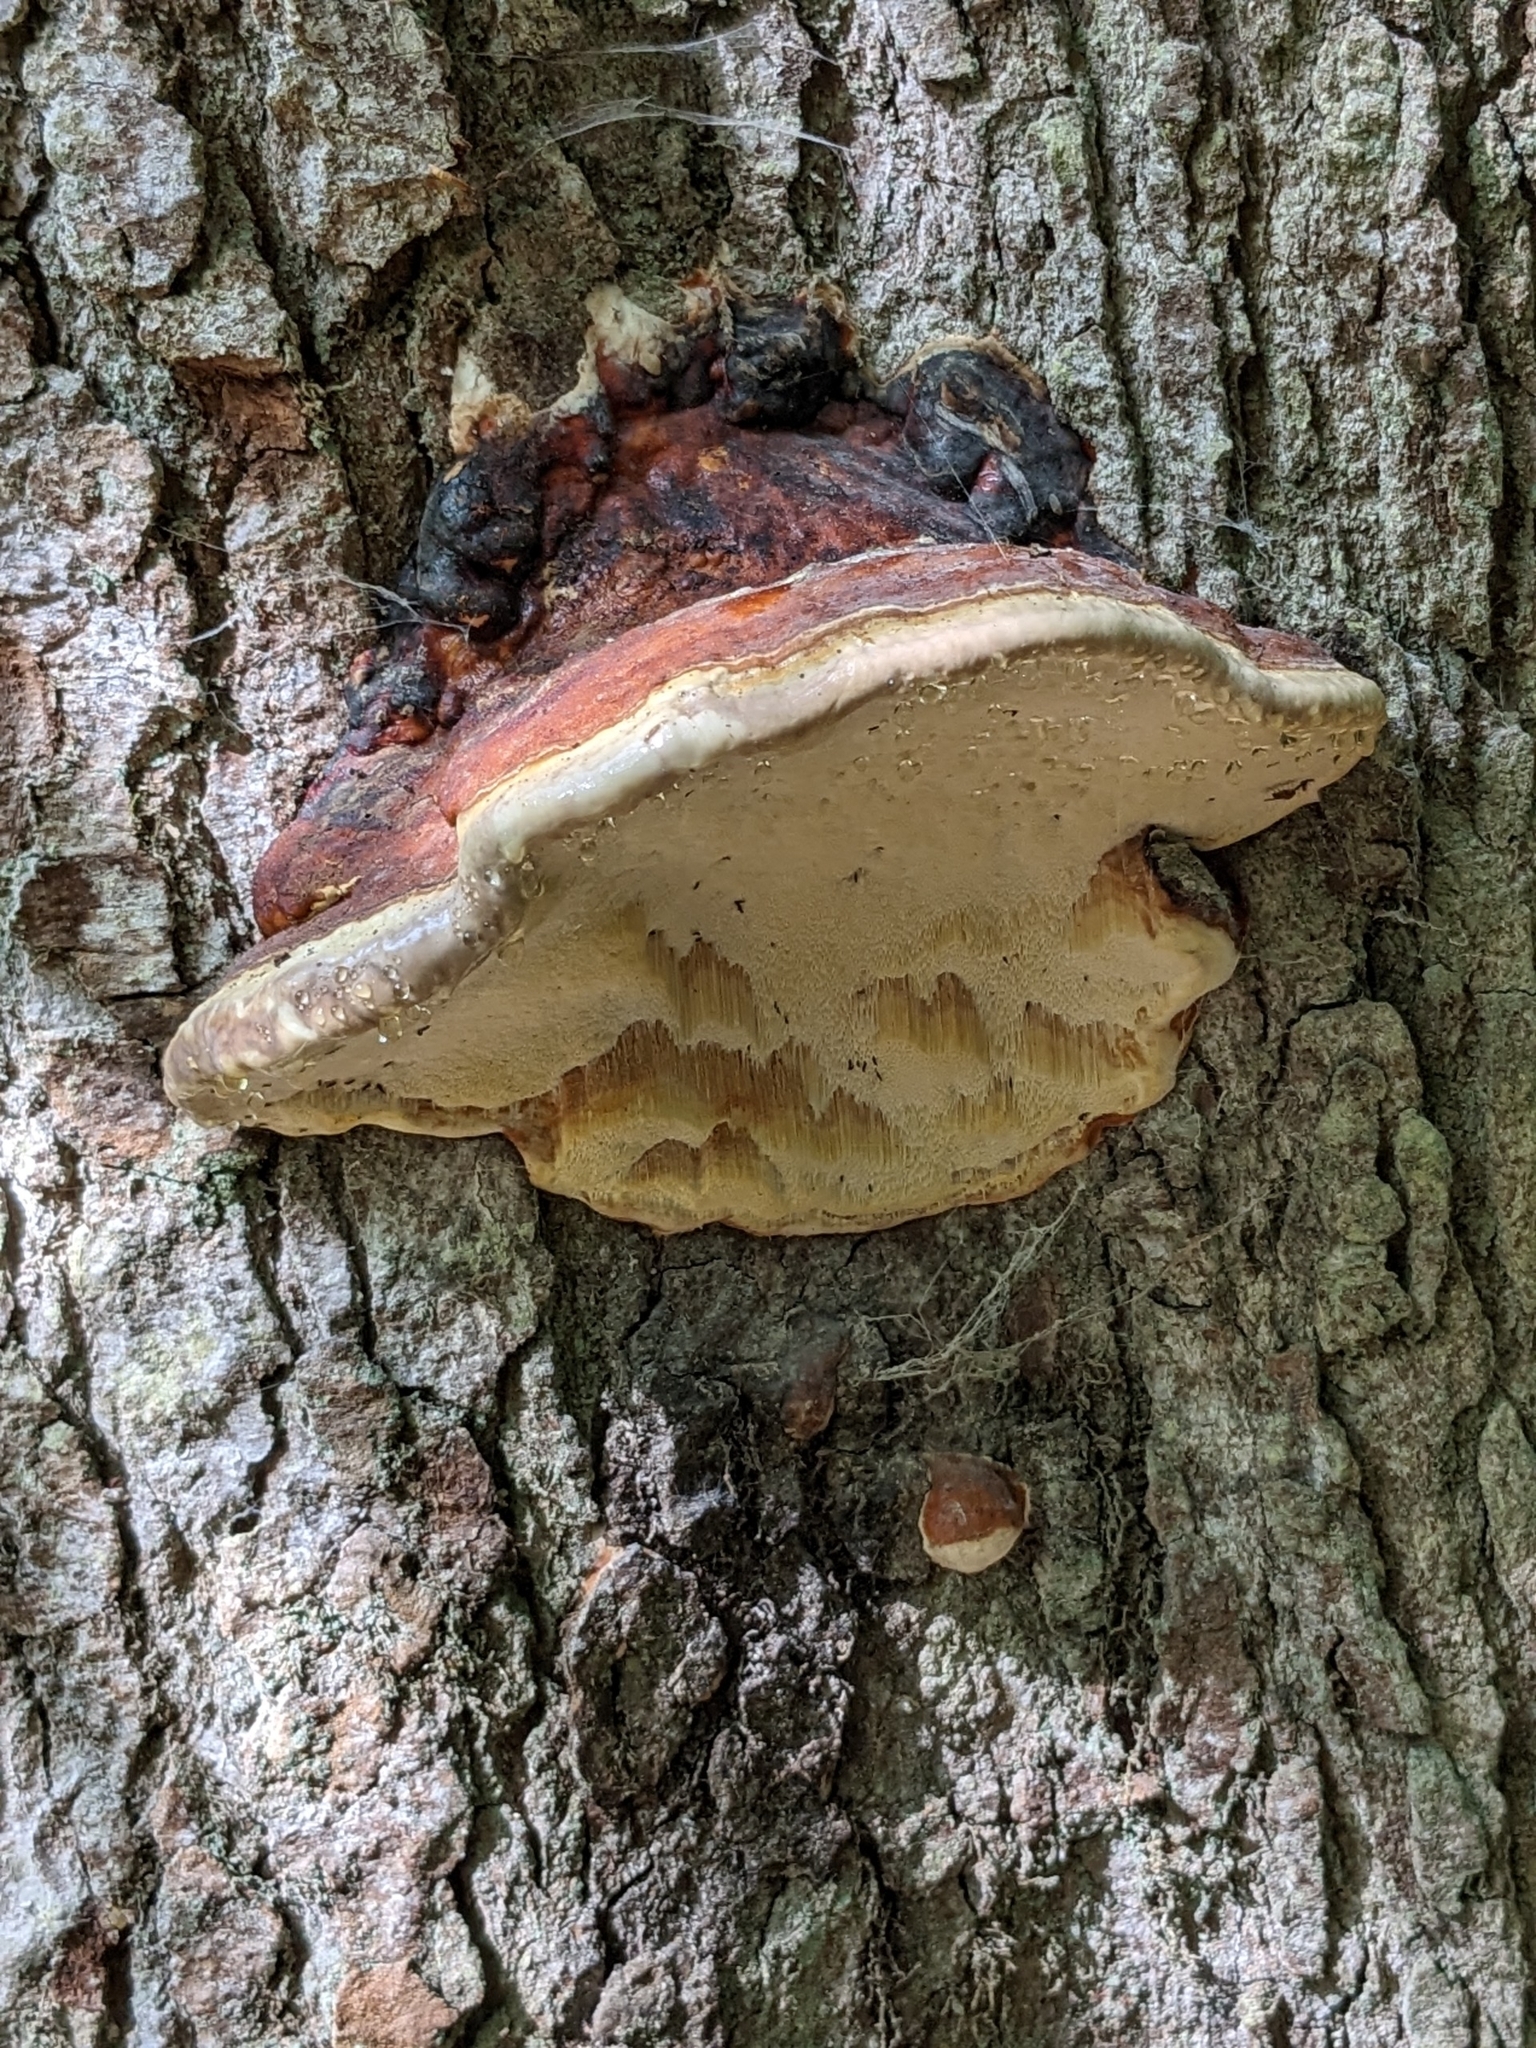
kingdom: Fungi
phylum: Basidiomycota
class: Agaricomycetes
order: Polyporales
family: Fomitopsidaceae
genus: Fomitopsis
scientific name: Fomitopsis pinicola
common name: Red-belted bracket
